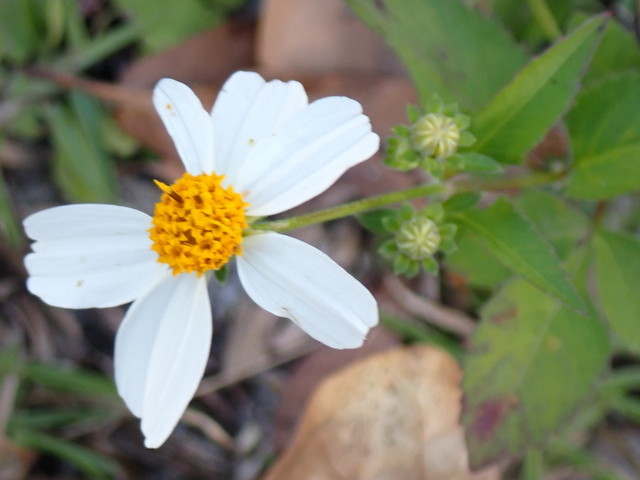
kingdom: Plantae
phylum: Tracheophyta
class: Magnoliopsida
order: Asterales
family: Asteraceae
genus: Bidens
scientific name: Bidens alba
